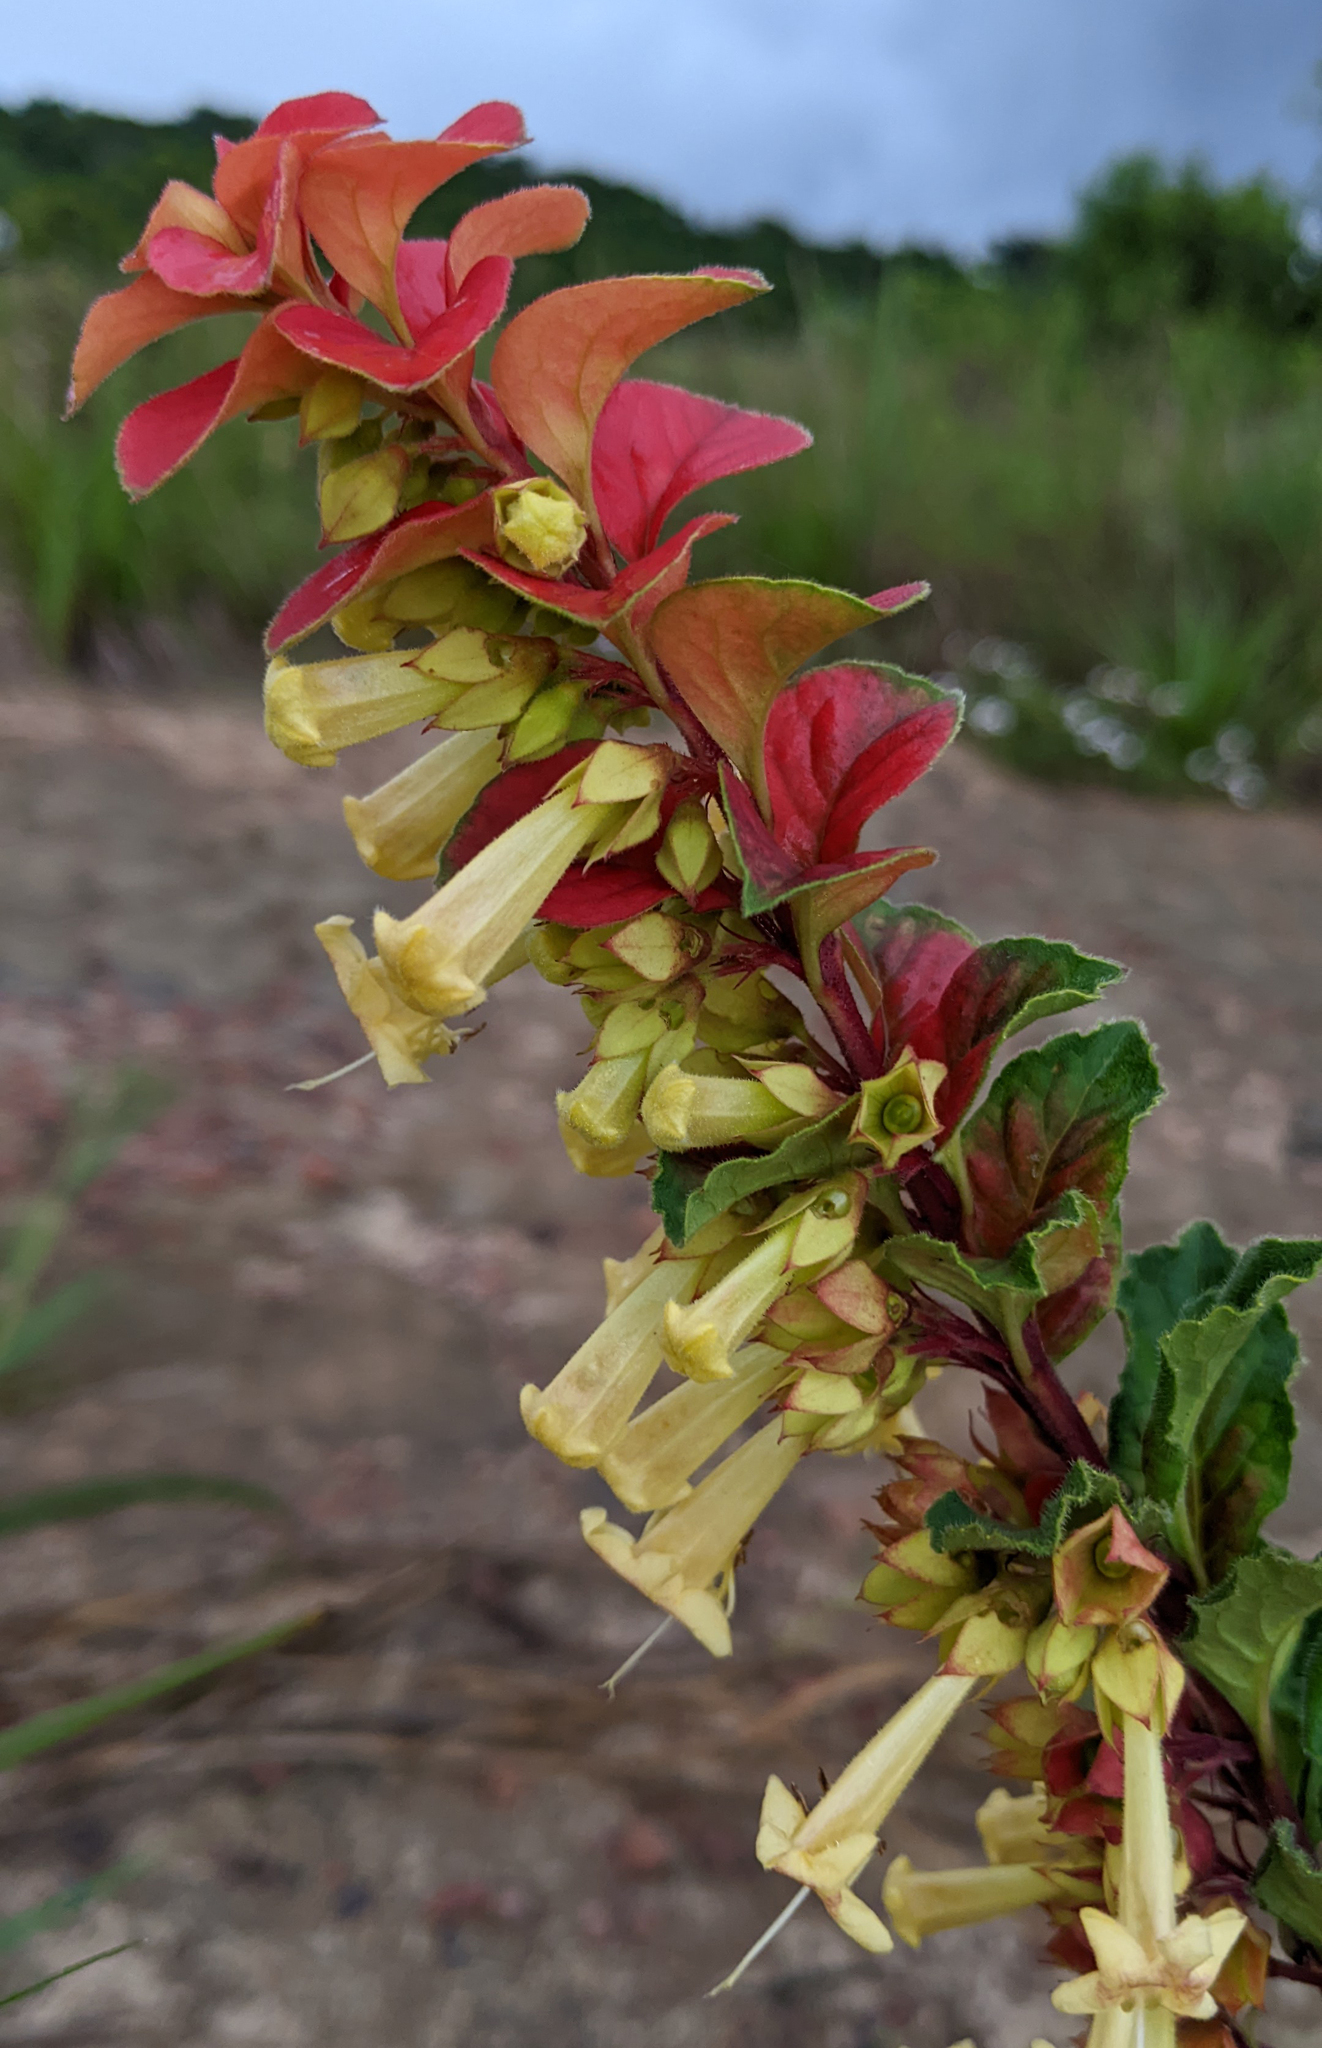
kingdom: Plantae
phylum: Tracheophyta
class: Magnoliopsida
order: Lamiales
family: Lamiaceae
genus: Amasonia
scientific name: Amasonia campestris
